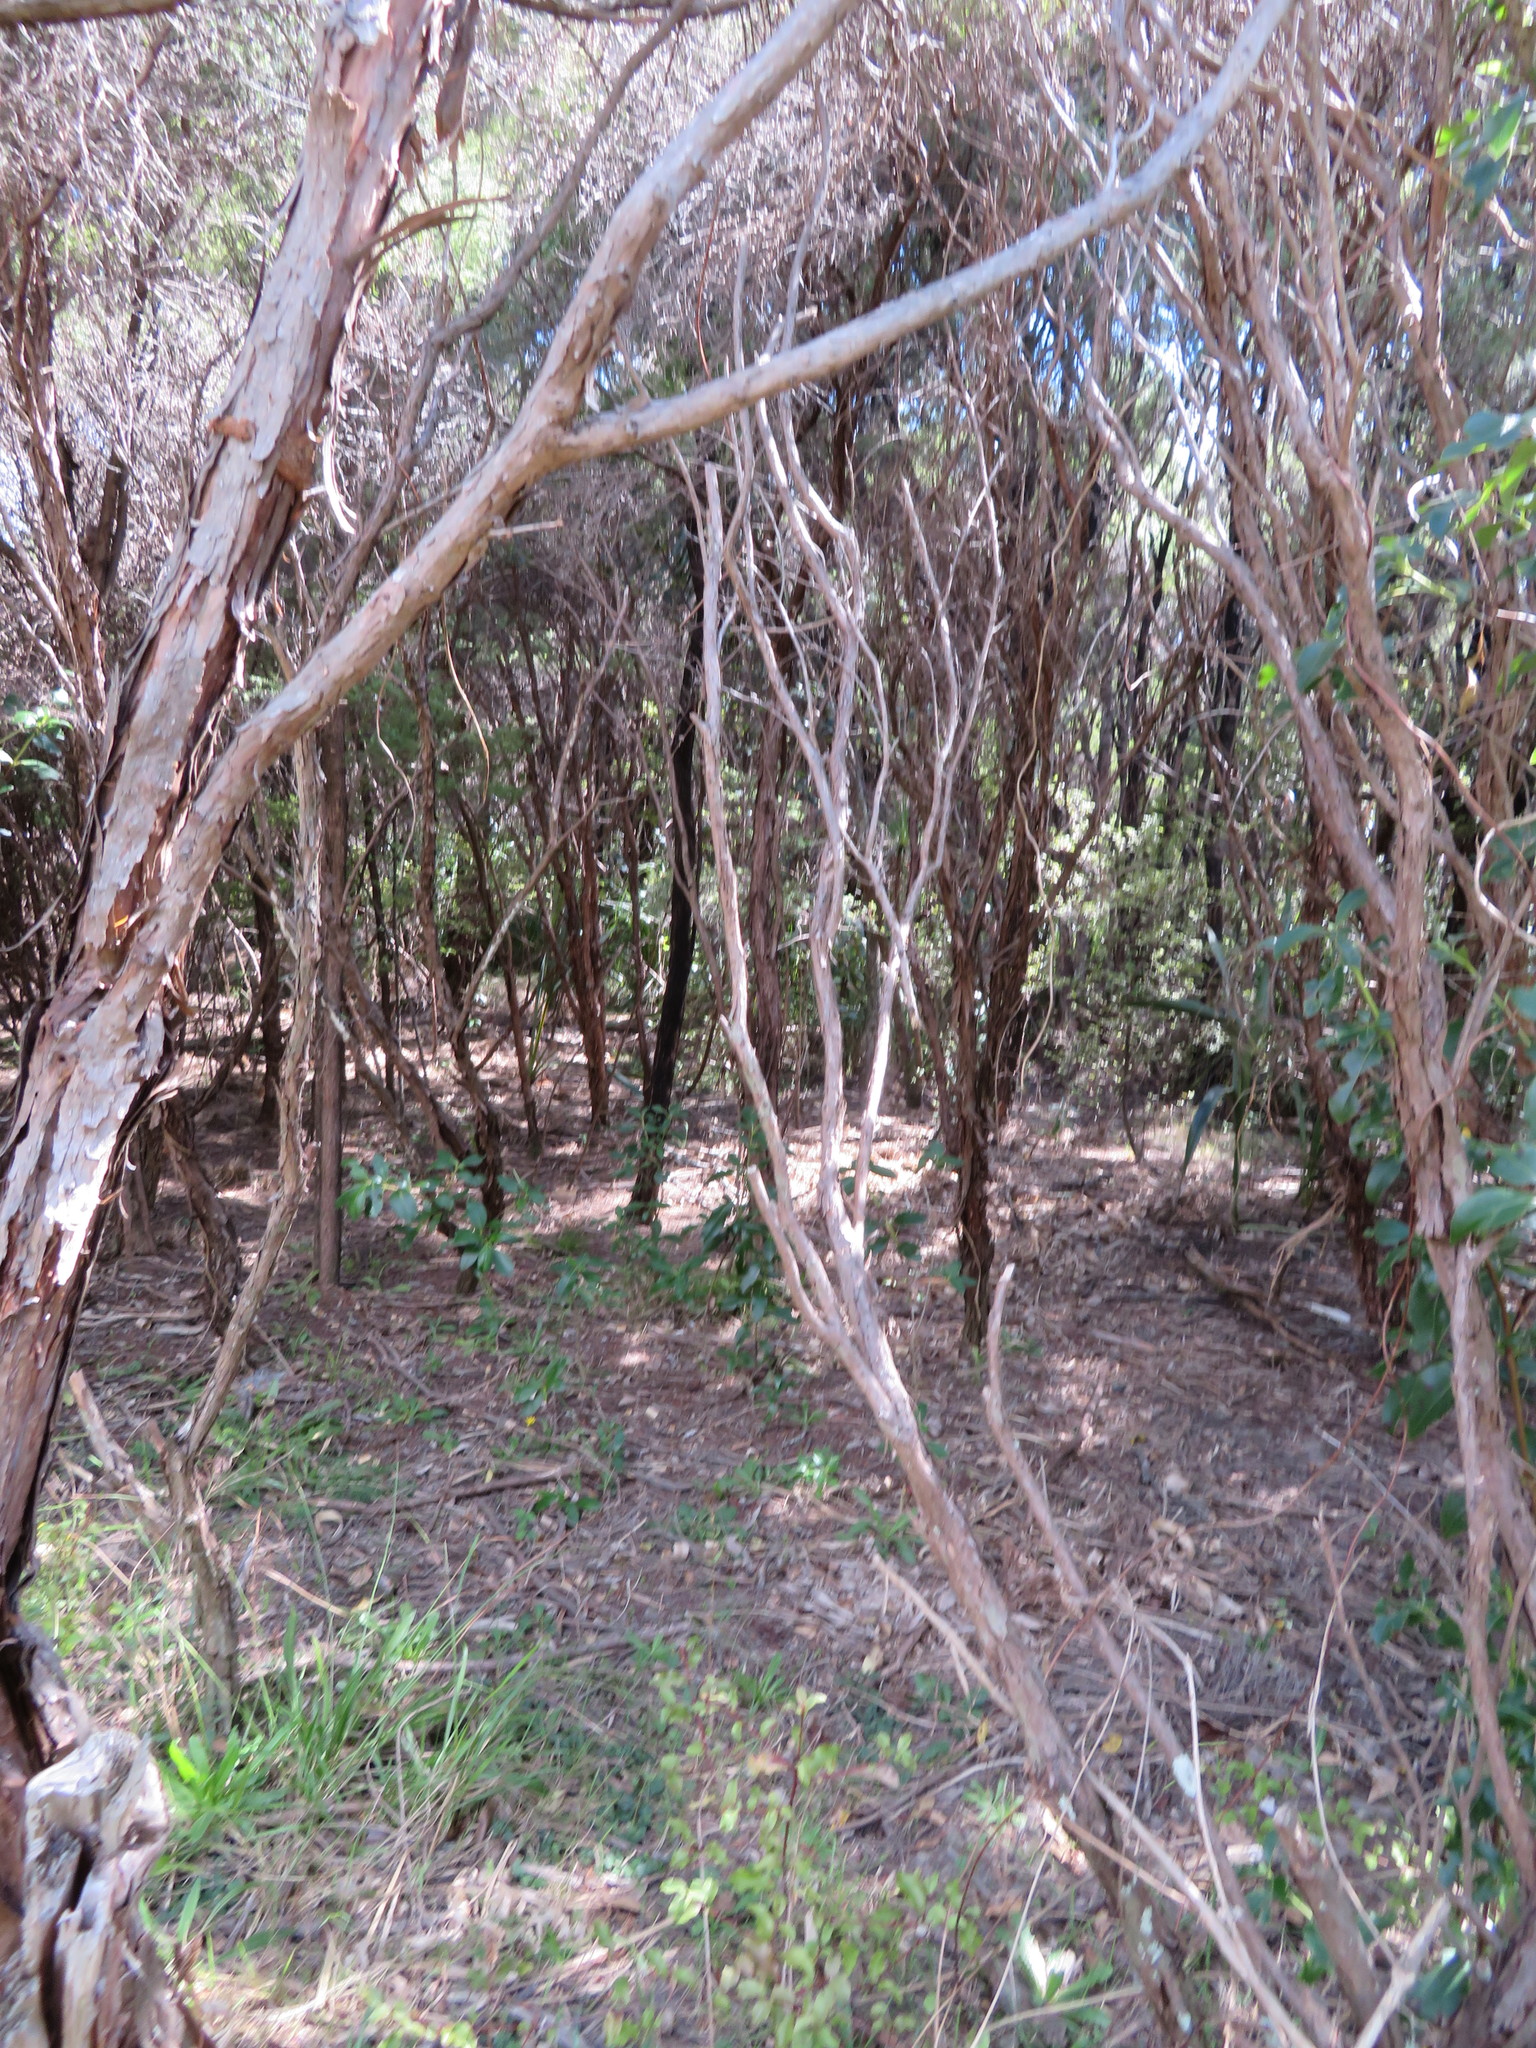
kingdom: Plantae
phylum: Tracheophyta
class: Magnoliopsida
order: Ericales
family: Primulaceae
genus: Myrsine
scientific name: Myrsine australis
